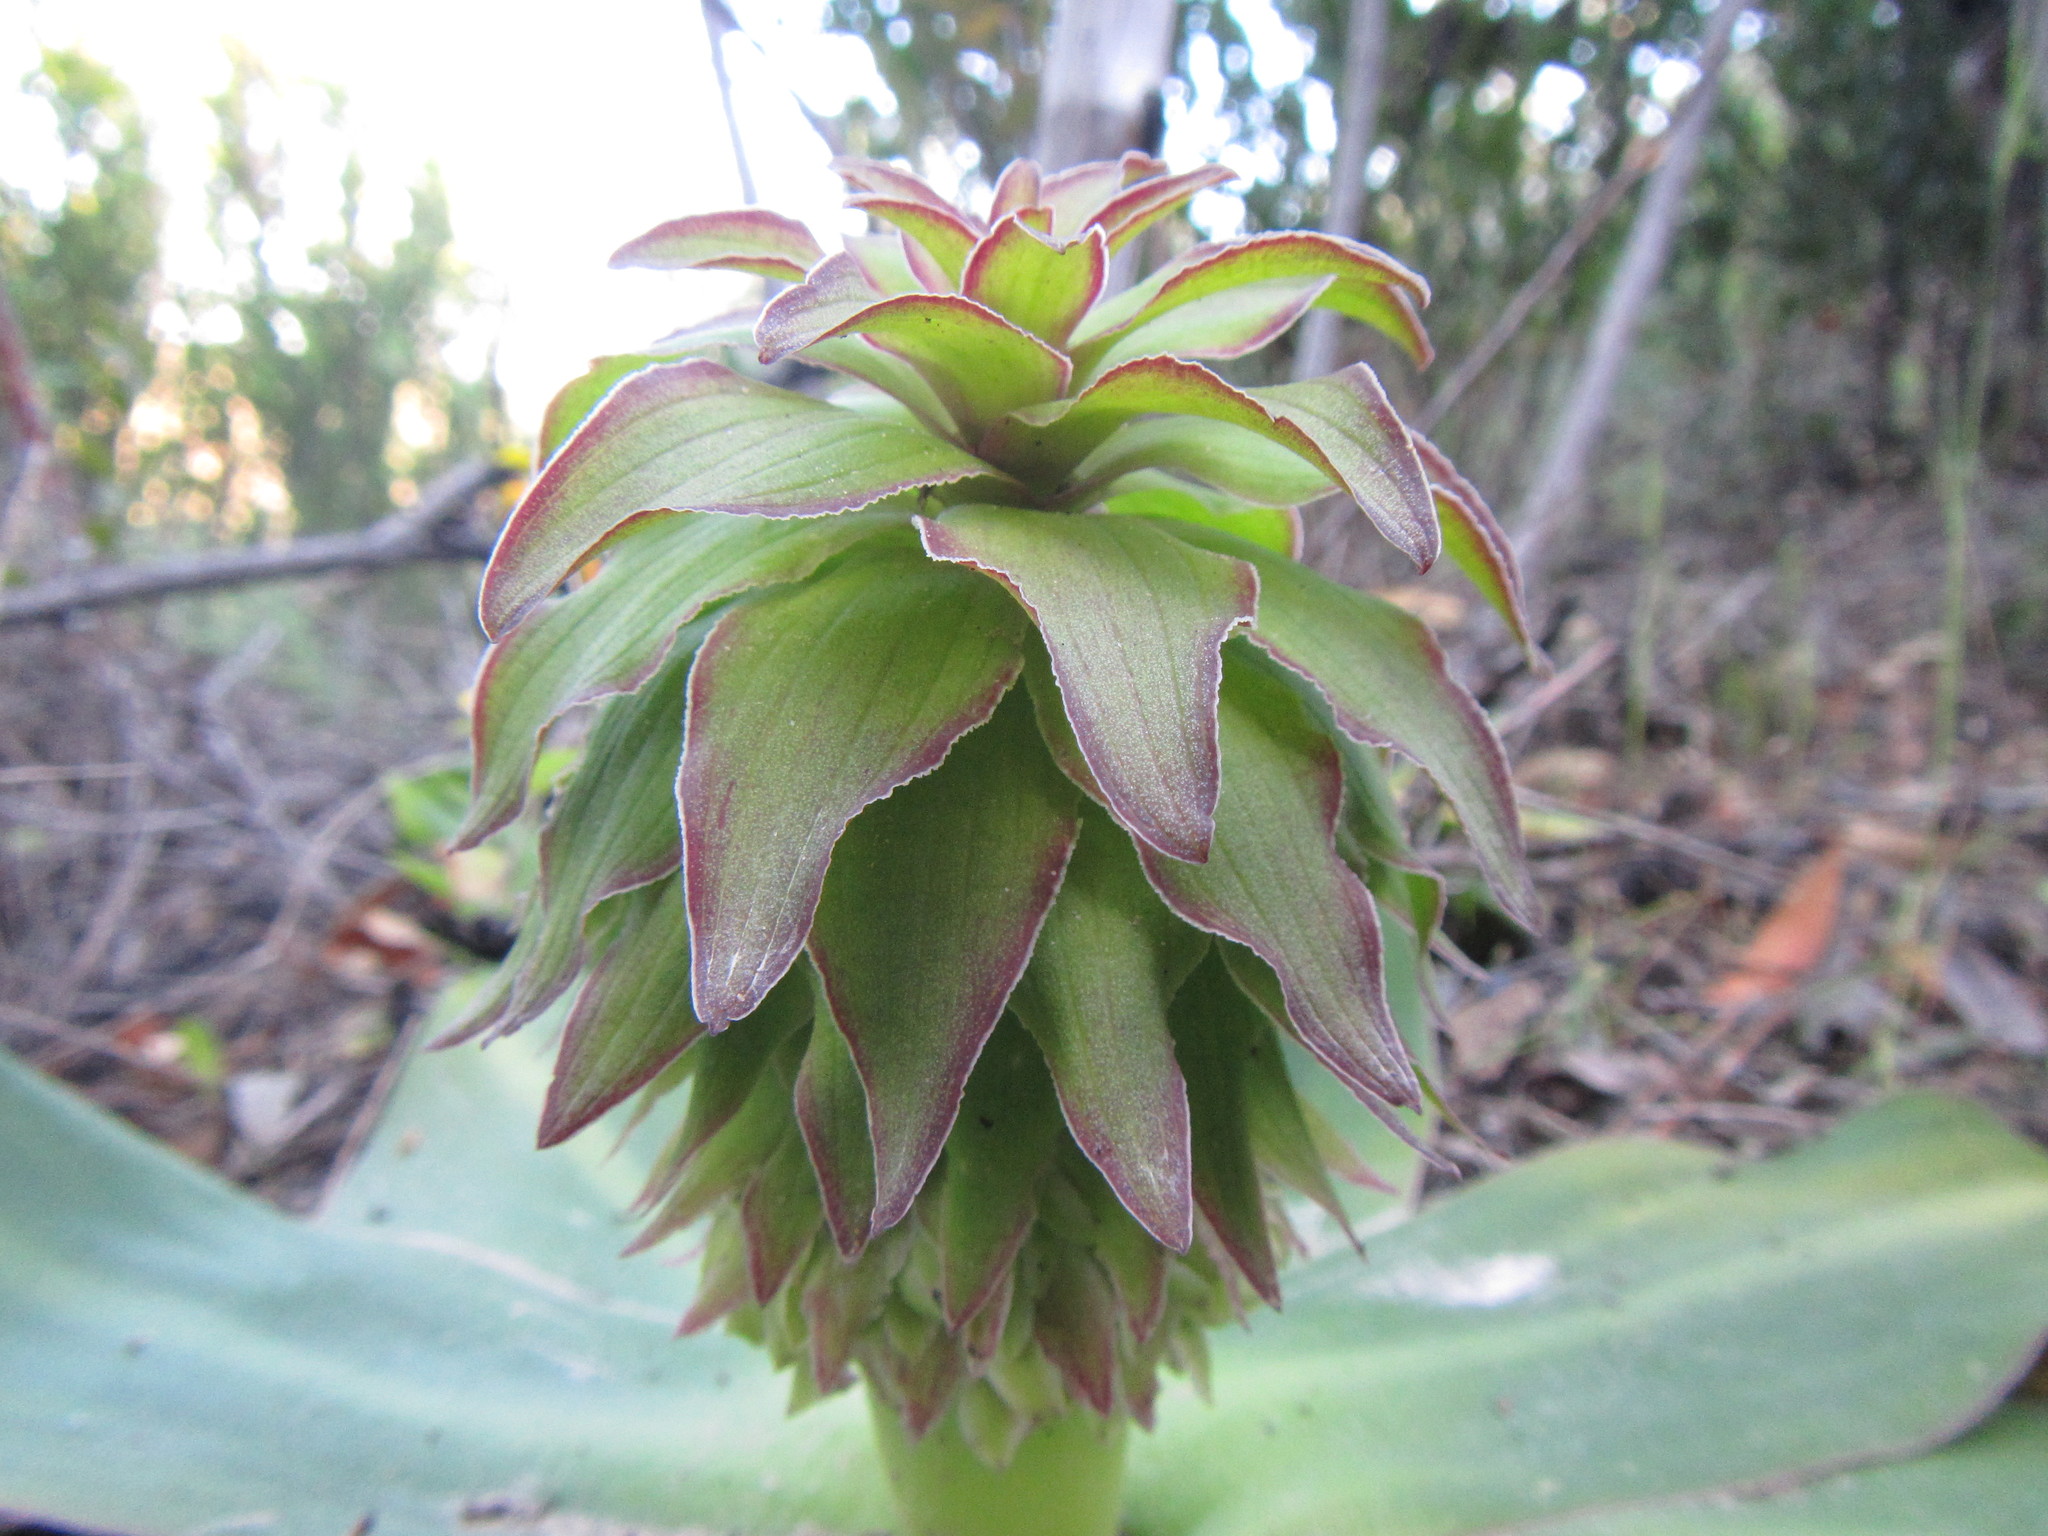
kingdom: Plantae
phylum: Tracheophyta
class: Liliopsida
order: Asparagales
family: Asparagaceae
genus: Eucomis
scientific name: Eucomis regia
